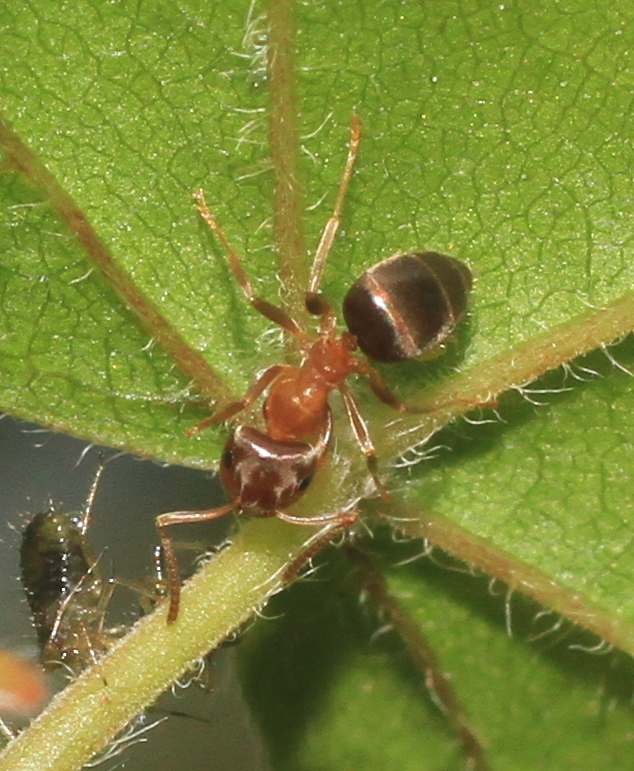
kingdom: Animalia
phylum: Arthropoda
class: Insecta
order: Hymenoptera
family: Formicidae
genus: Lasius
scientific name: Lasius brunneus
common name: Brown ant
